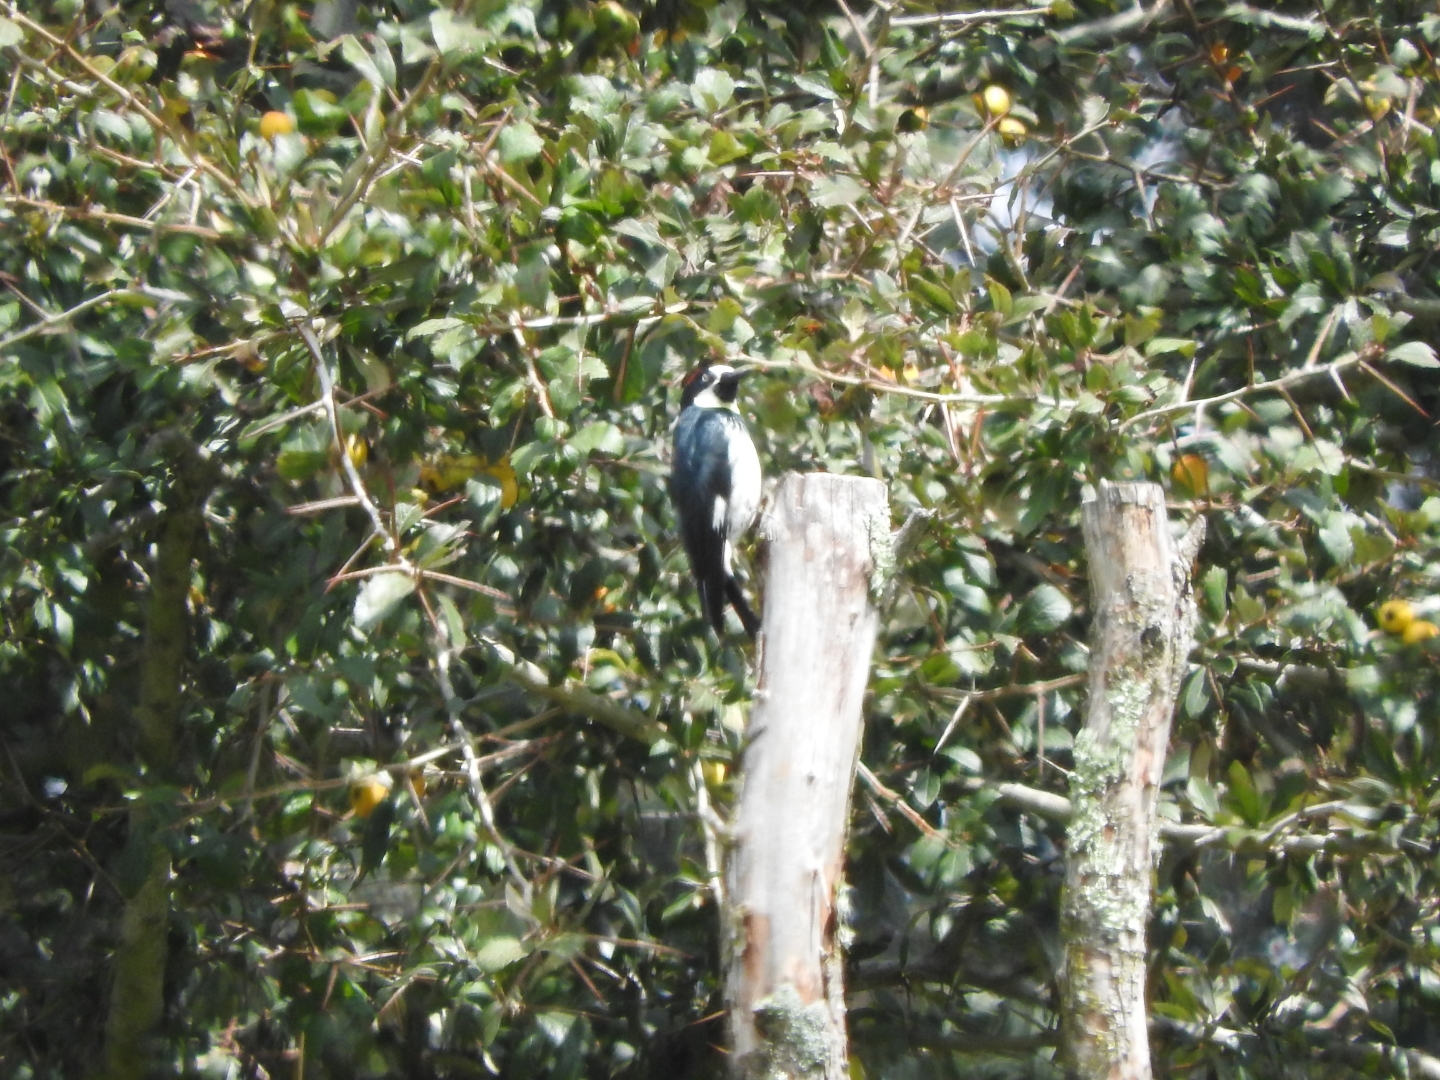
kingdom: Animalia
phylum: Chordata
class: Aves
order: Piciformes
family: Picidae
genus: Melanerpes
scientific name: Melanerpes formicivorus
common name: Acorn woodpecker
